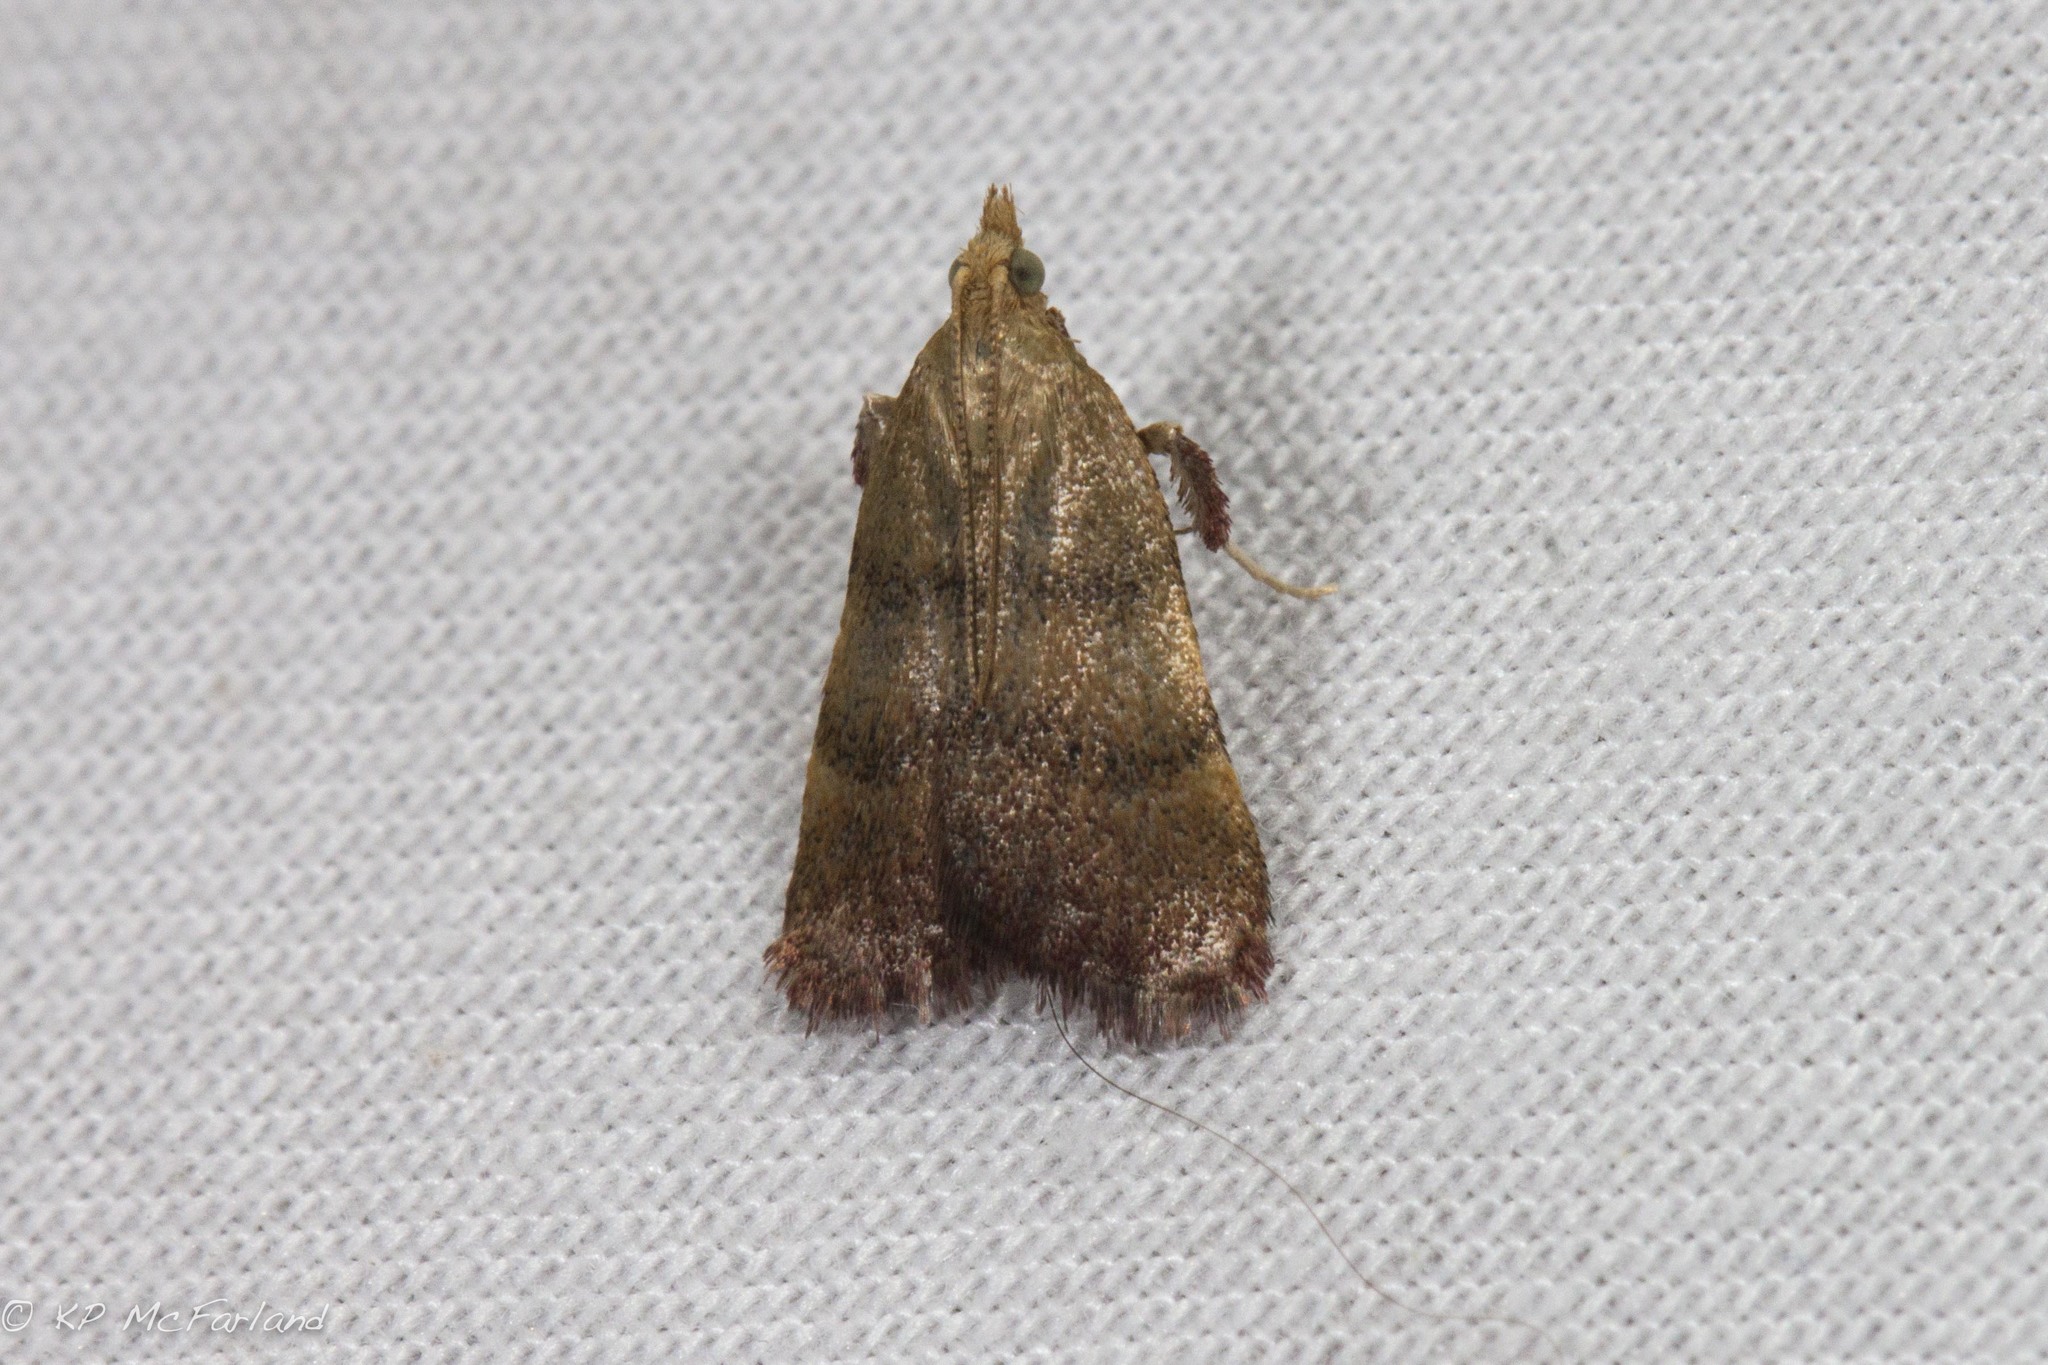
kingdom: Animalia
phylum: Arthropoda
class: Insecta
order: Lepidoptera
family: Pyralidae
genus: Condylolomia
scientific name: Condylolomia participialis
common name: Drab condylolomia moth
